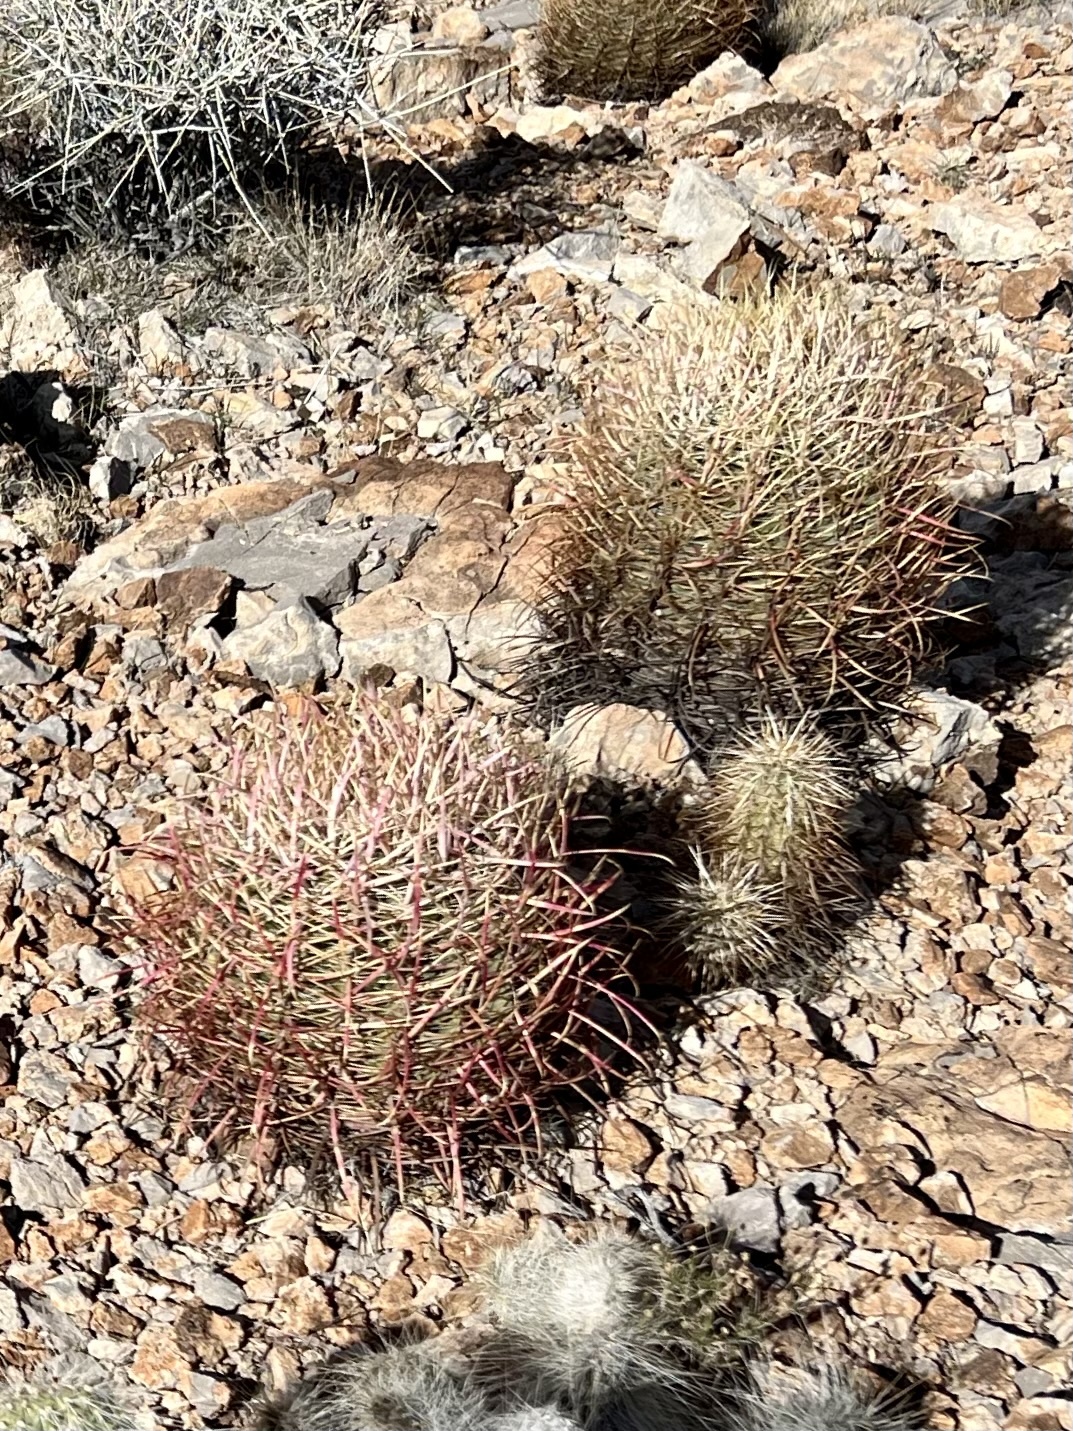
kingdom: Plantae
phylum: Tracheophyta
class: Magnoliopsida
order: Caryophyllales
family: Cactaceae
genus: Ferocactus
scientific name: Ferocactus cylindraceus
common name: California barrel cactus
